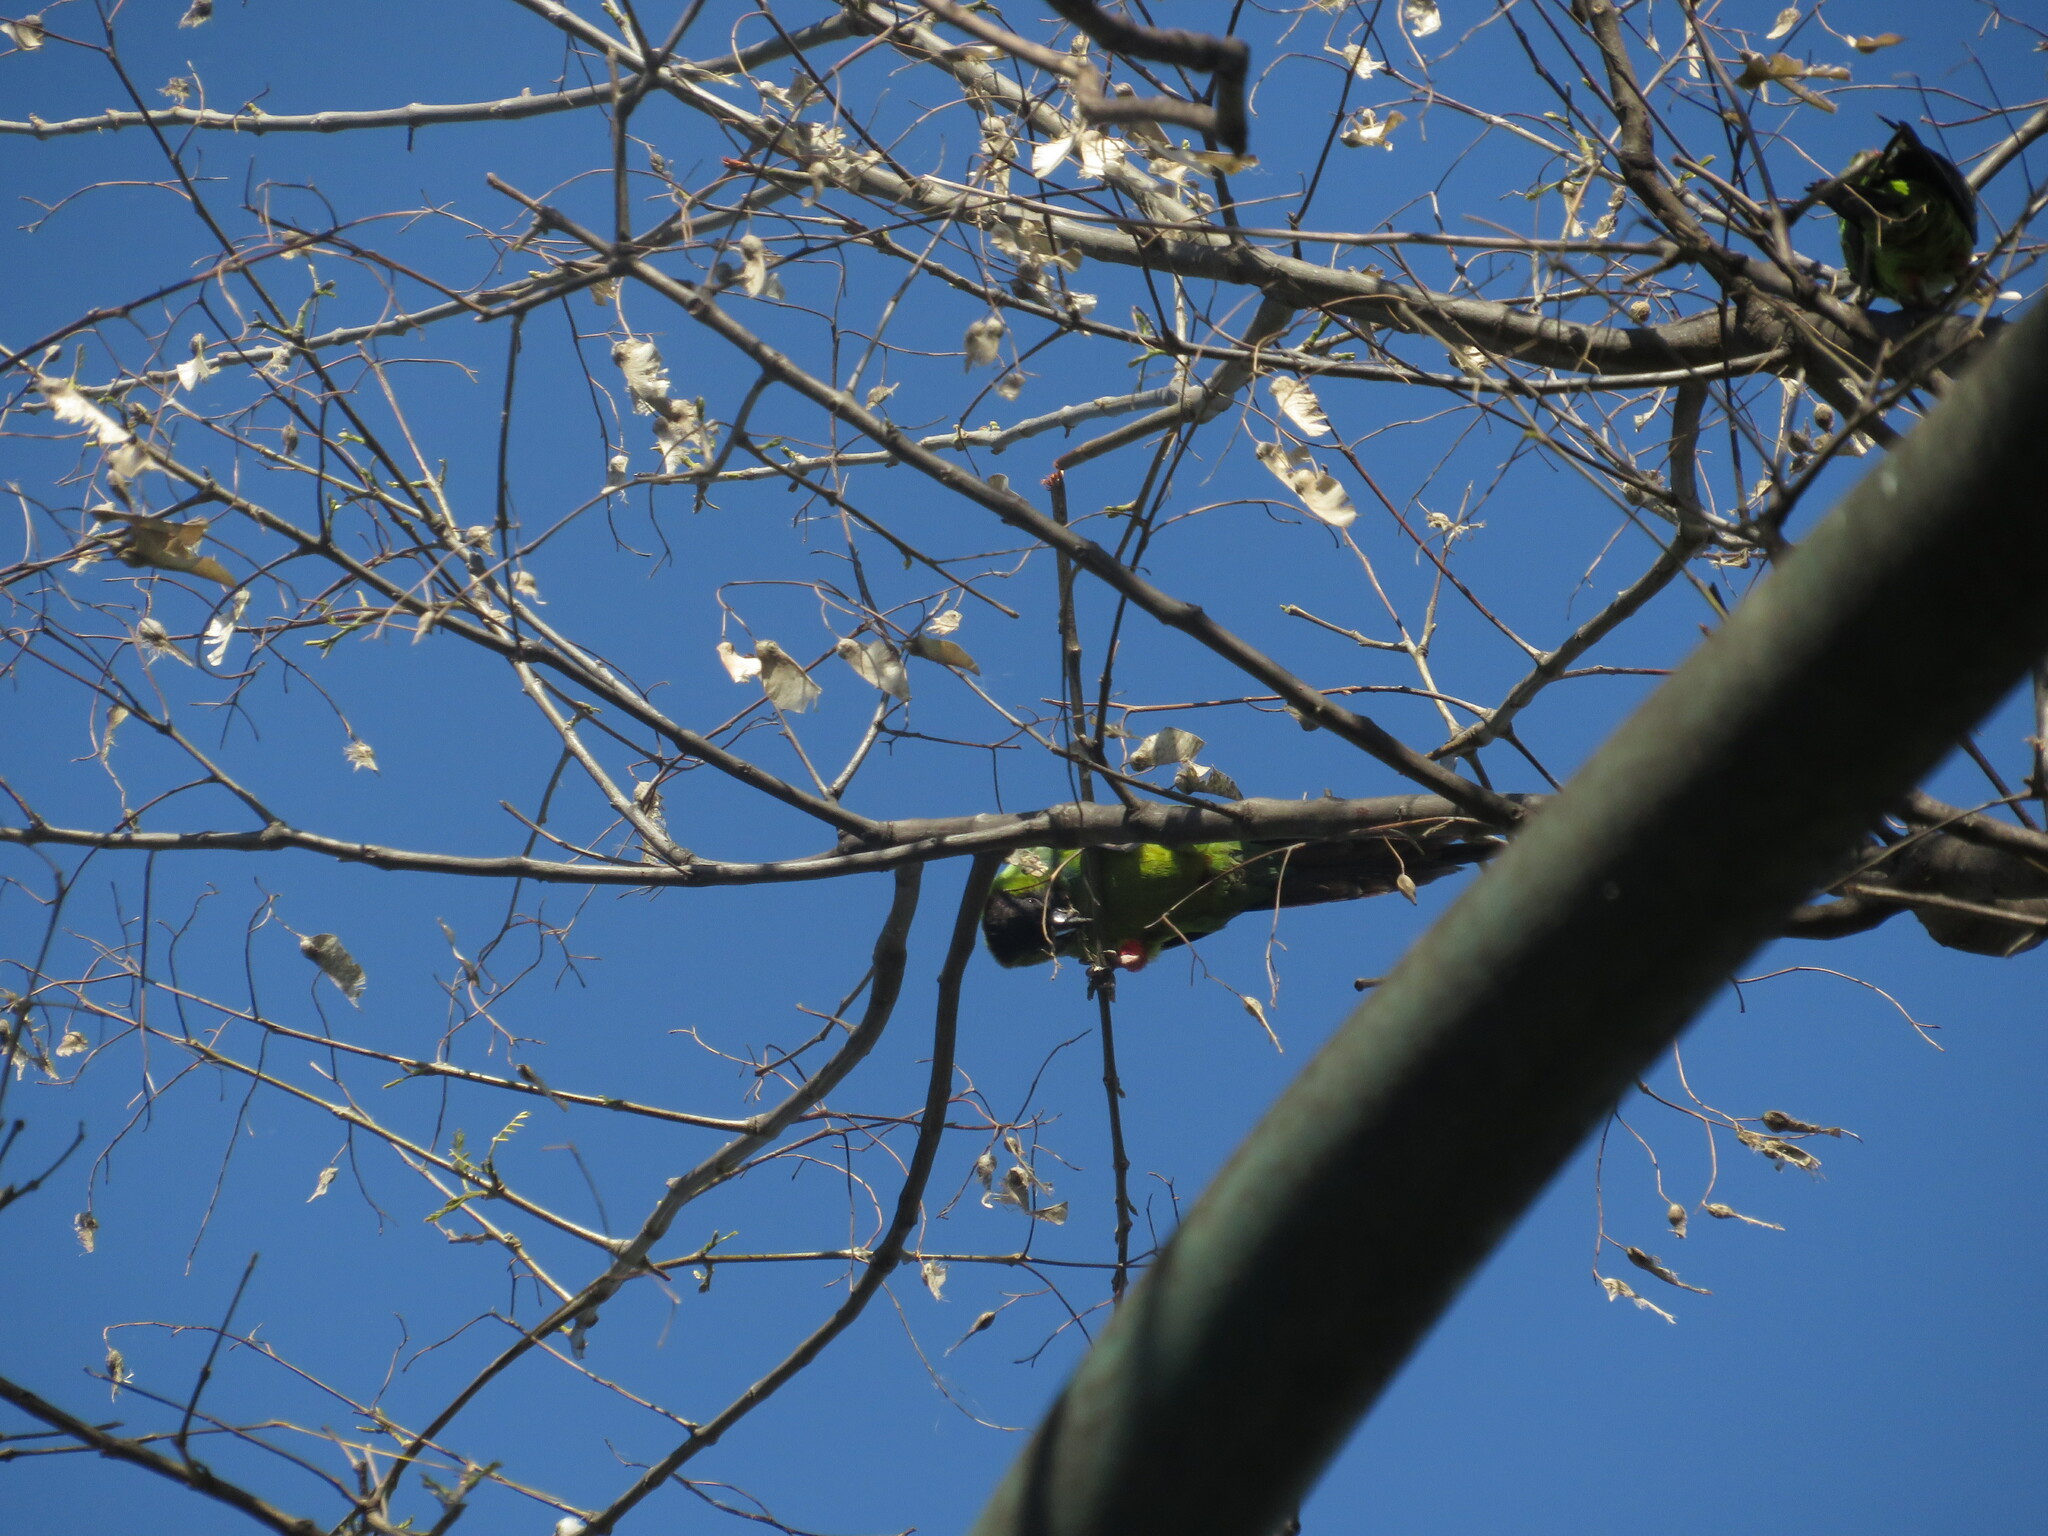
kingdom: Animalia
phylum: Chordata
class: Aves
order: Psittaciformes
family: Psittacidae
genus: Nandayus
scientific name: Nandayus nenday
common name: Nanday parakeet
